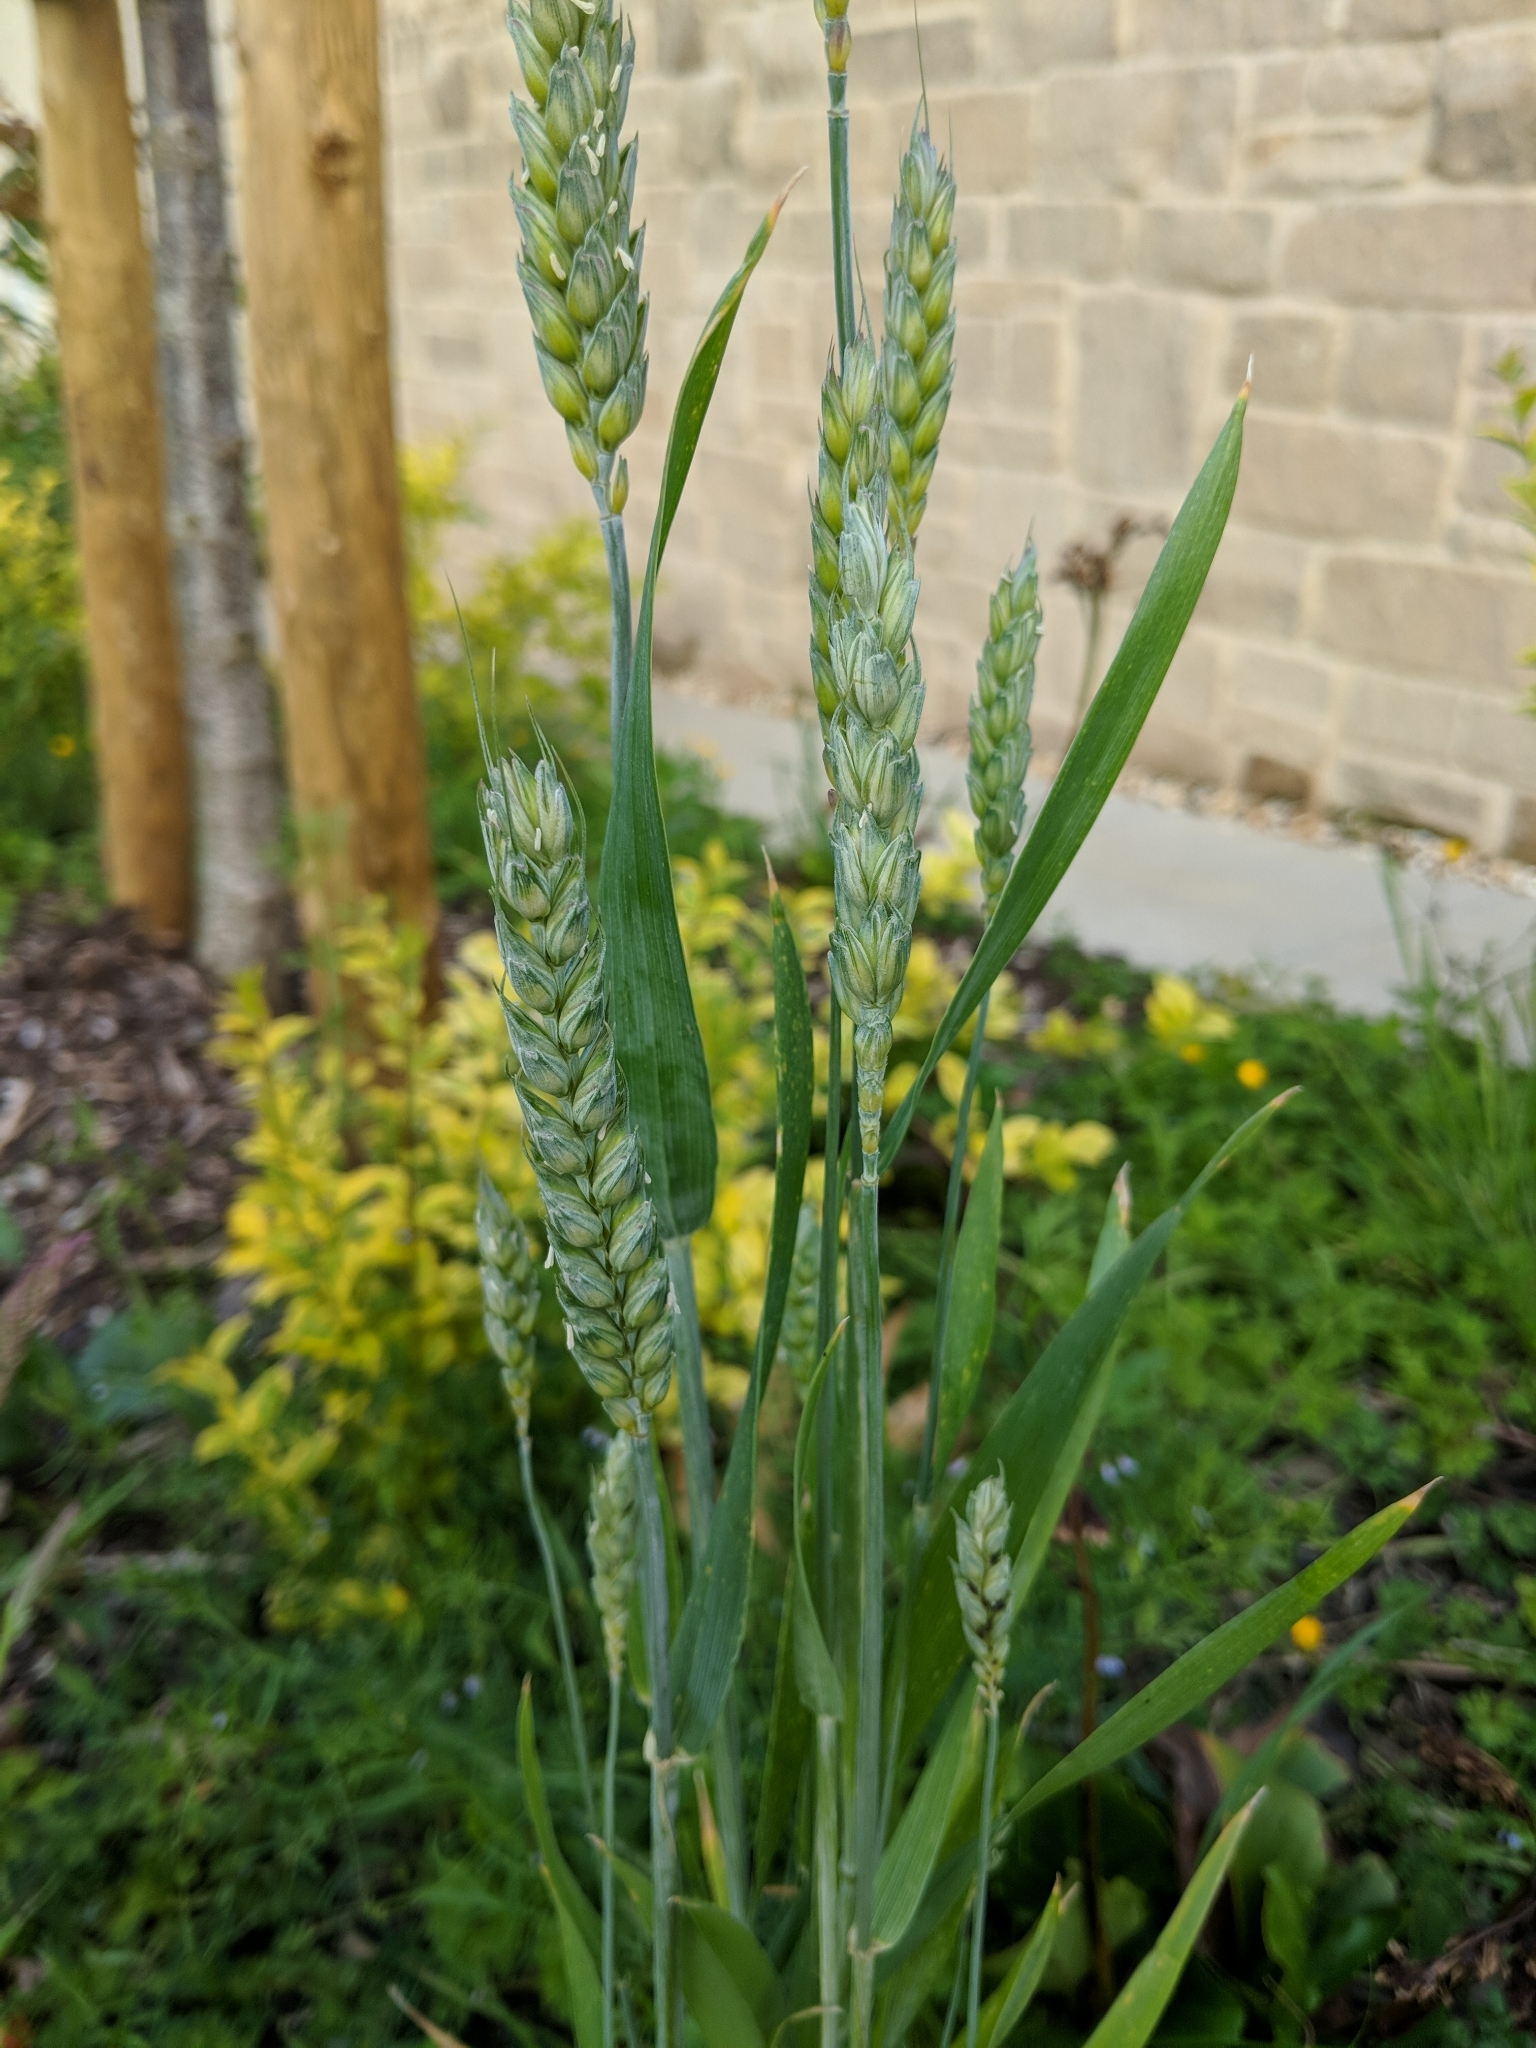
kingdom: Plantae
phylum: Tracheophyta
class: Liliopsida
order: Poales
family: Poaceae
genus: Triticum
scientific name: Triticum aestivum
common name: Common wheat
